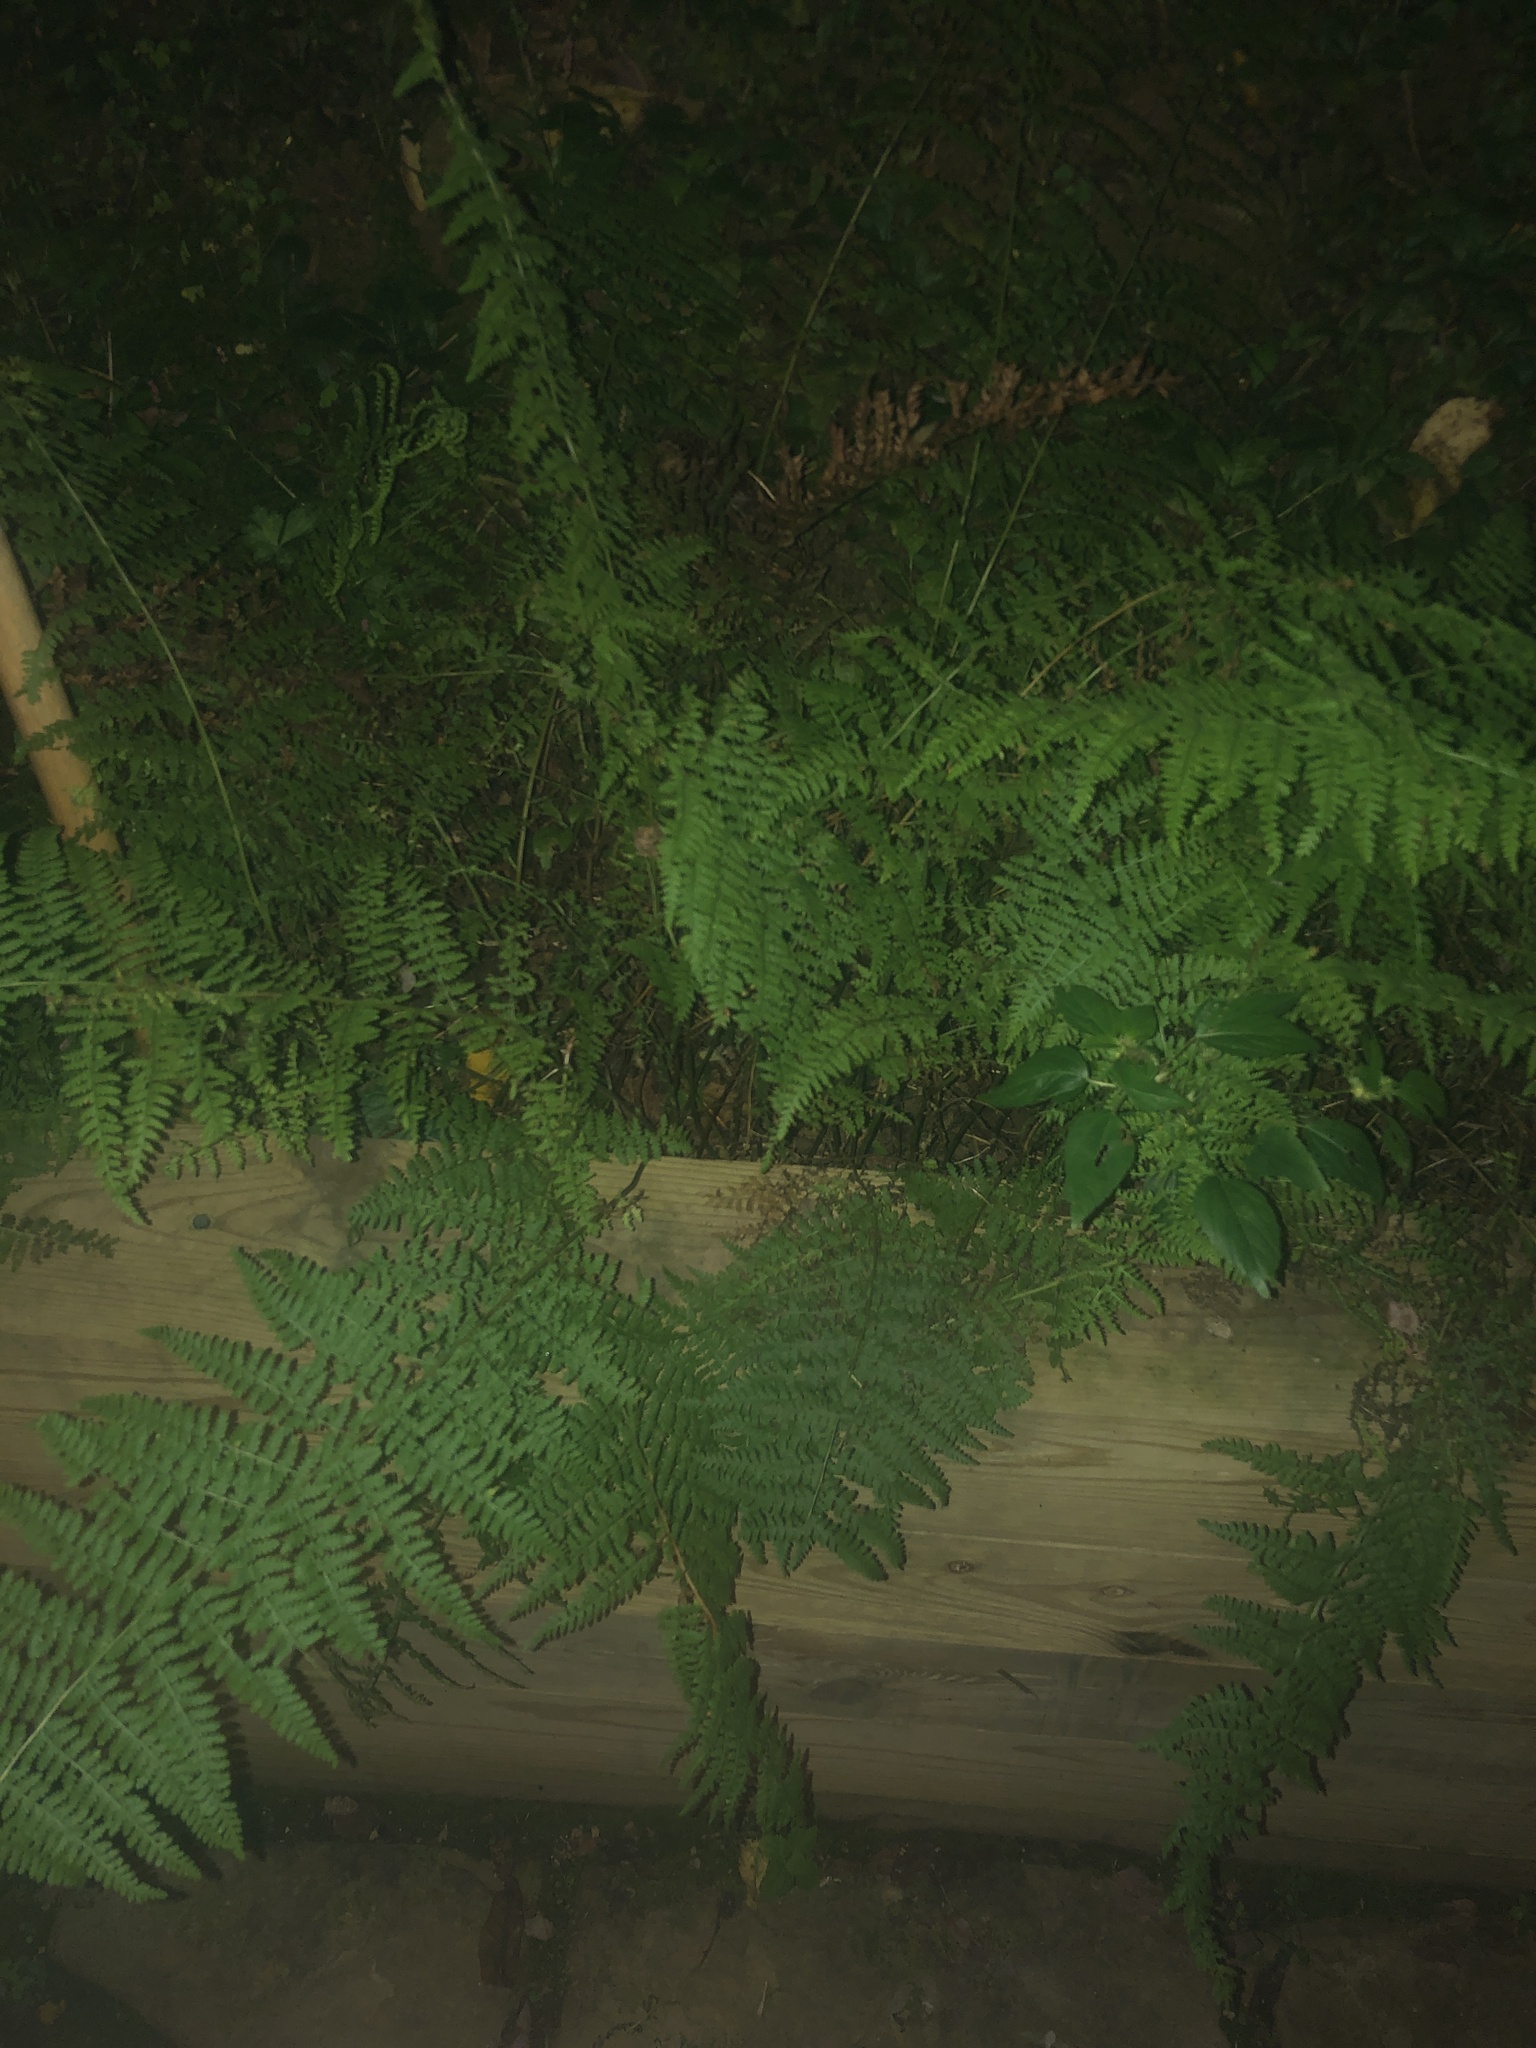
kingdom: Plantae
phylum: Tracheophyta
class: Polypodiopsida
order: Polypodiales
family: Dennstaedtiaceae
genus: Sitobolium
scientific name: Sitobolium punctilobum
